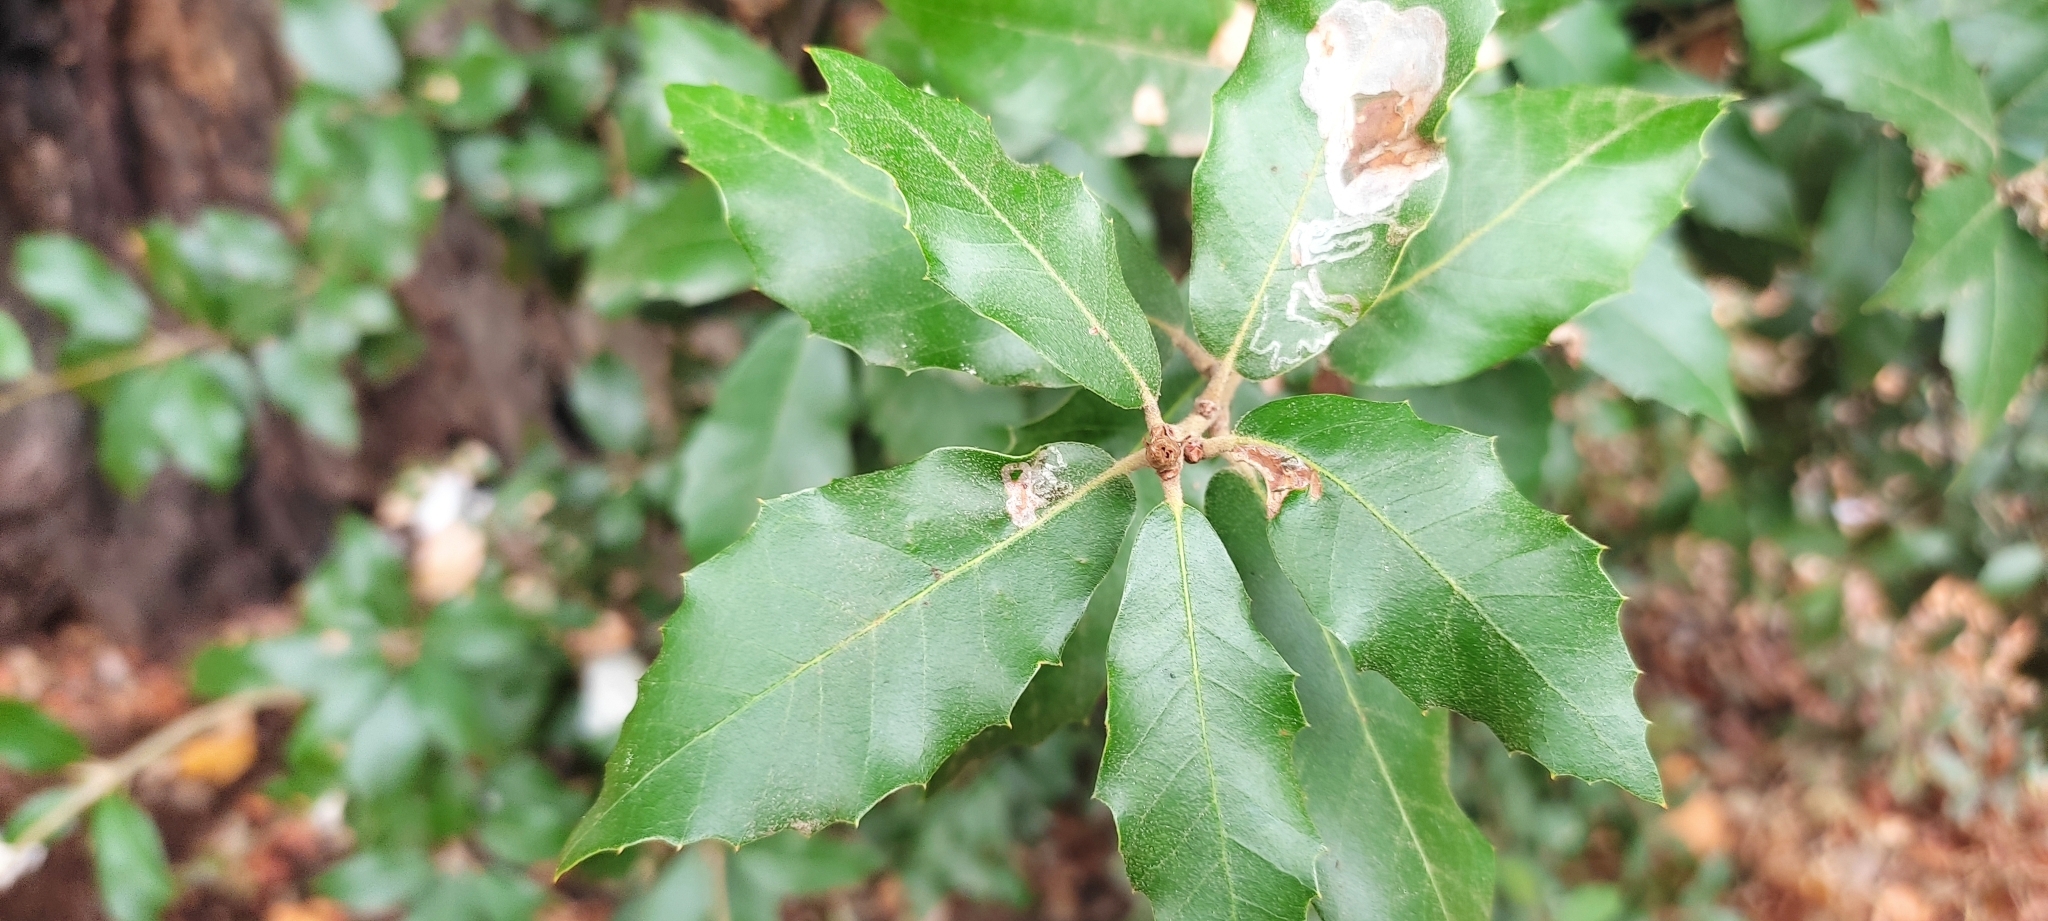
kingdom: Plantae
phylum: Tracheophyta
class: Magnoliopsida
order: Fagales
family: Fagaceae
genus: Quercus
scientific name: Quercus ilex
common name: Evergreen oak
